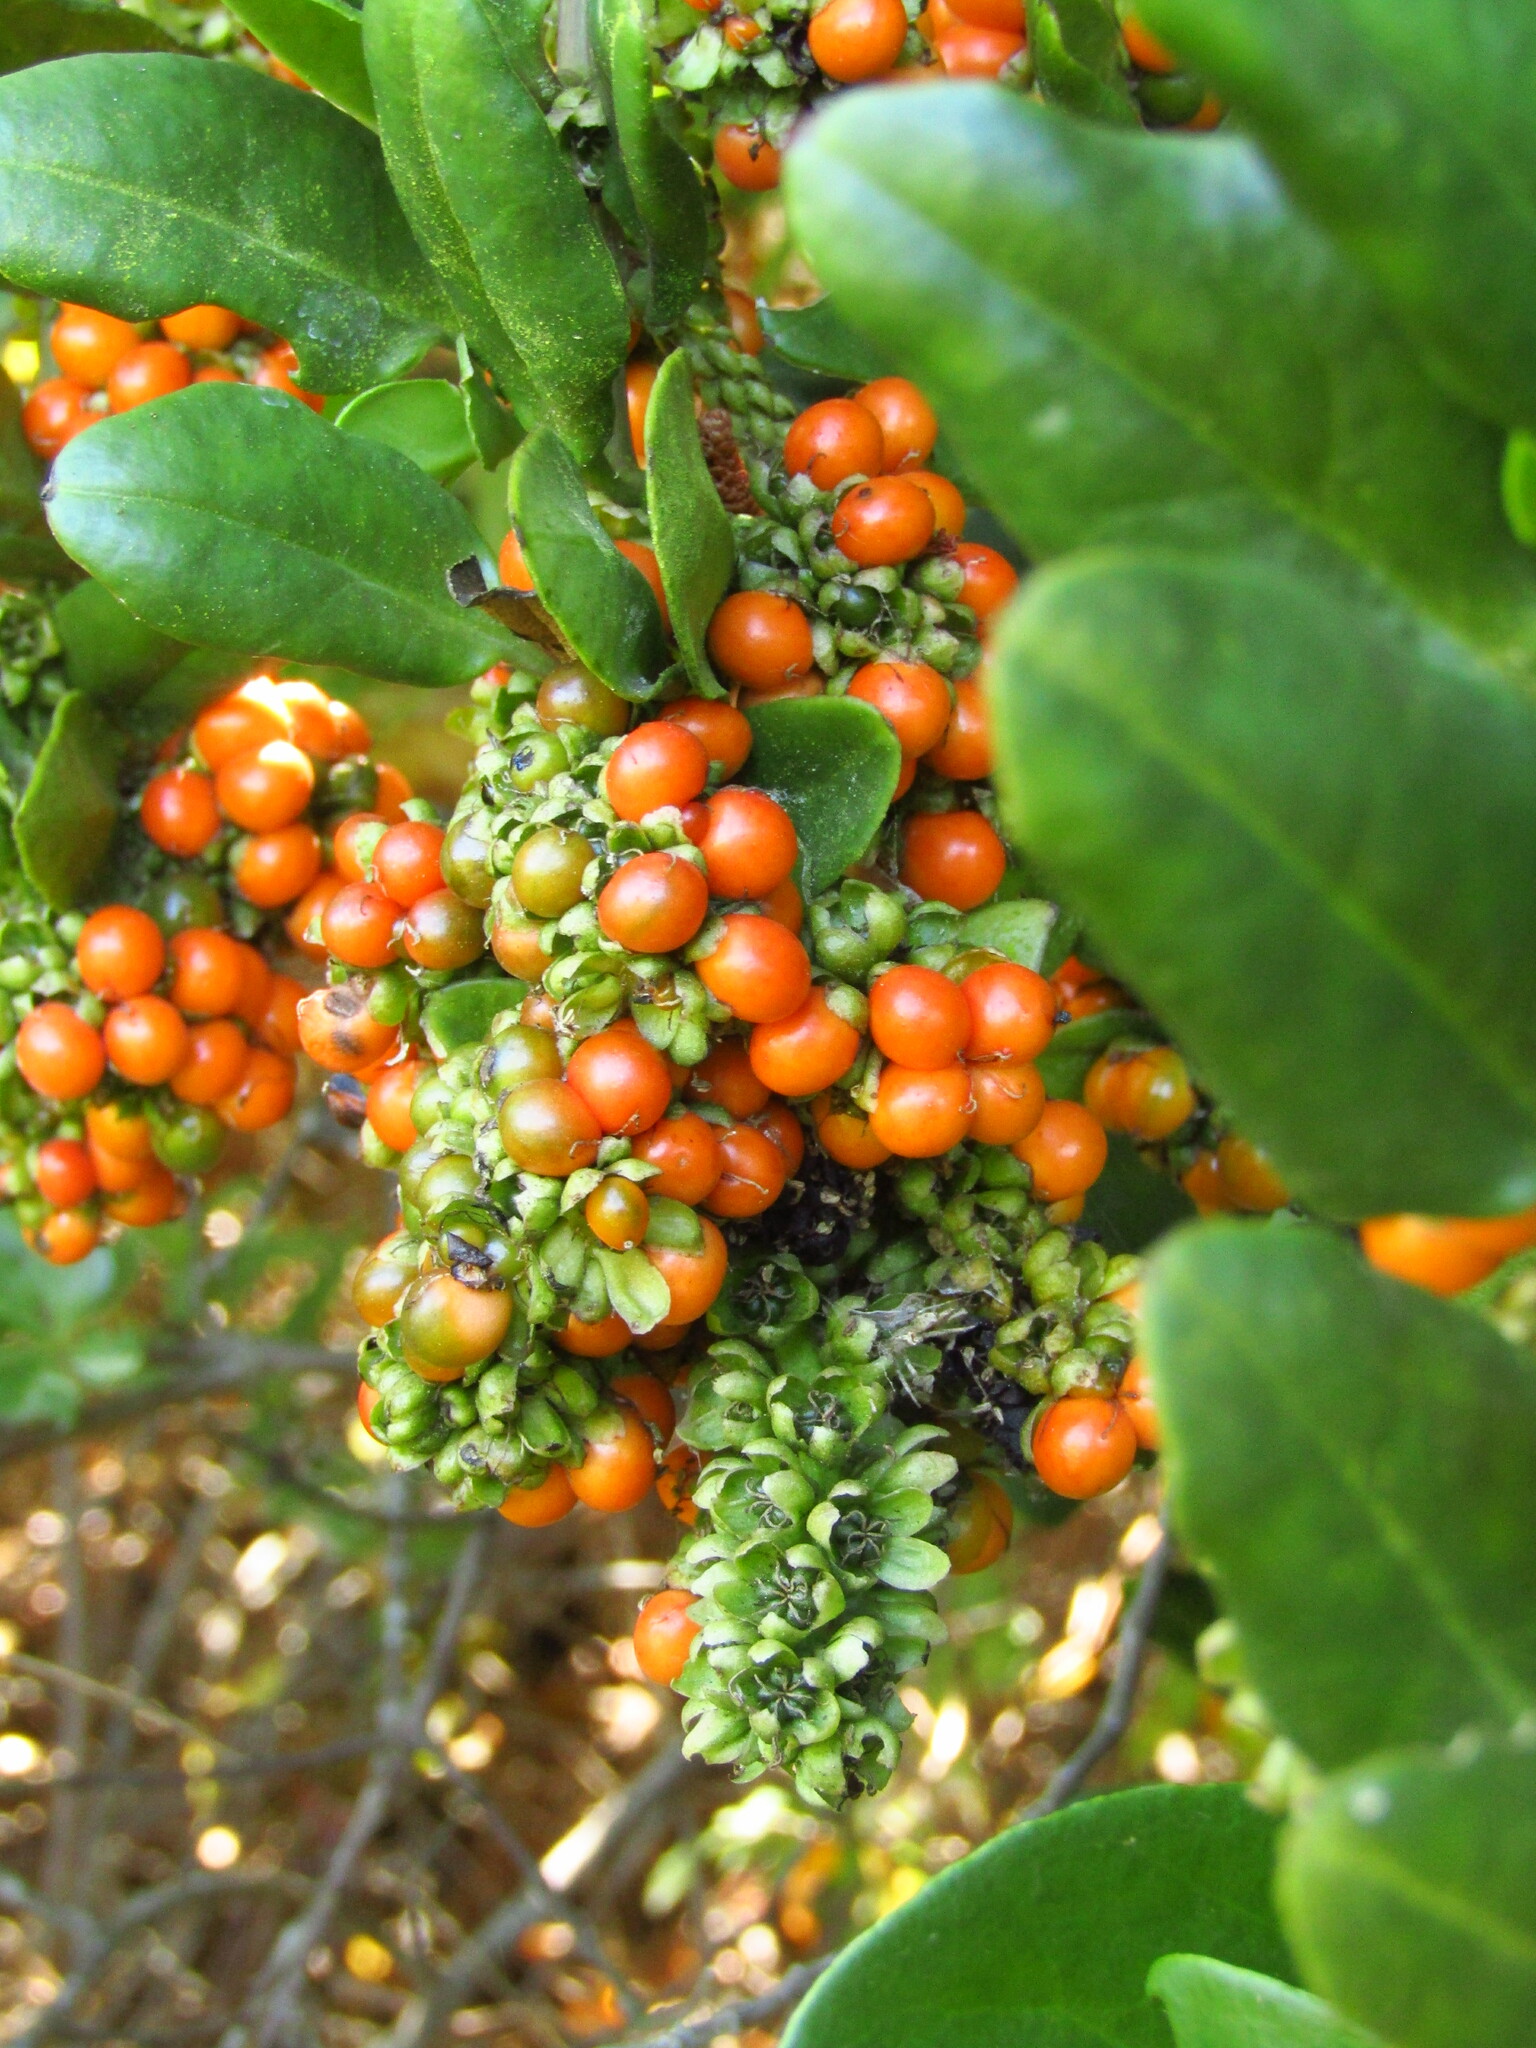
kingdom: Plantae
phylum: Tracheophyta
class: Magnoliopsida
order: Caryophyllales
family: Phytolaccaceae
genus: Ercilla
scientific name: Ercilla spicata
